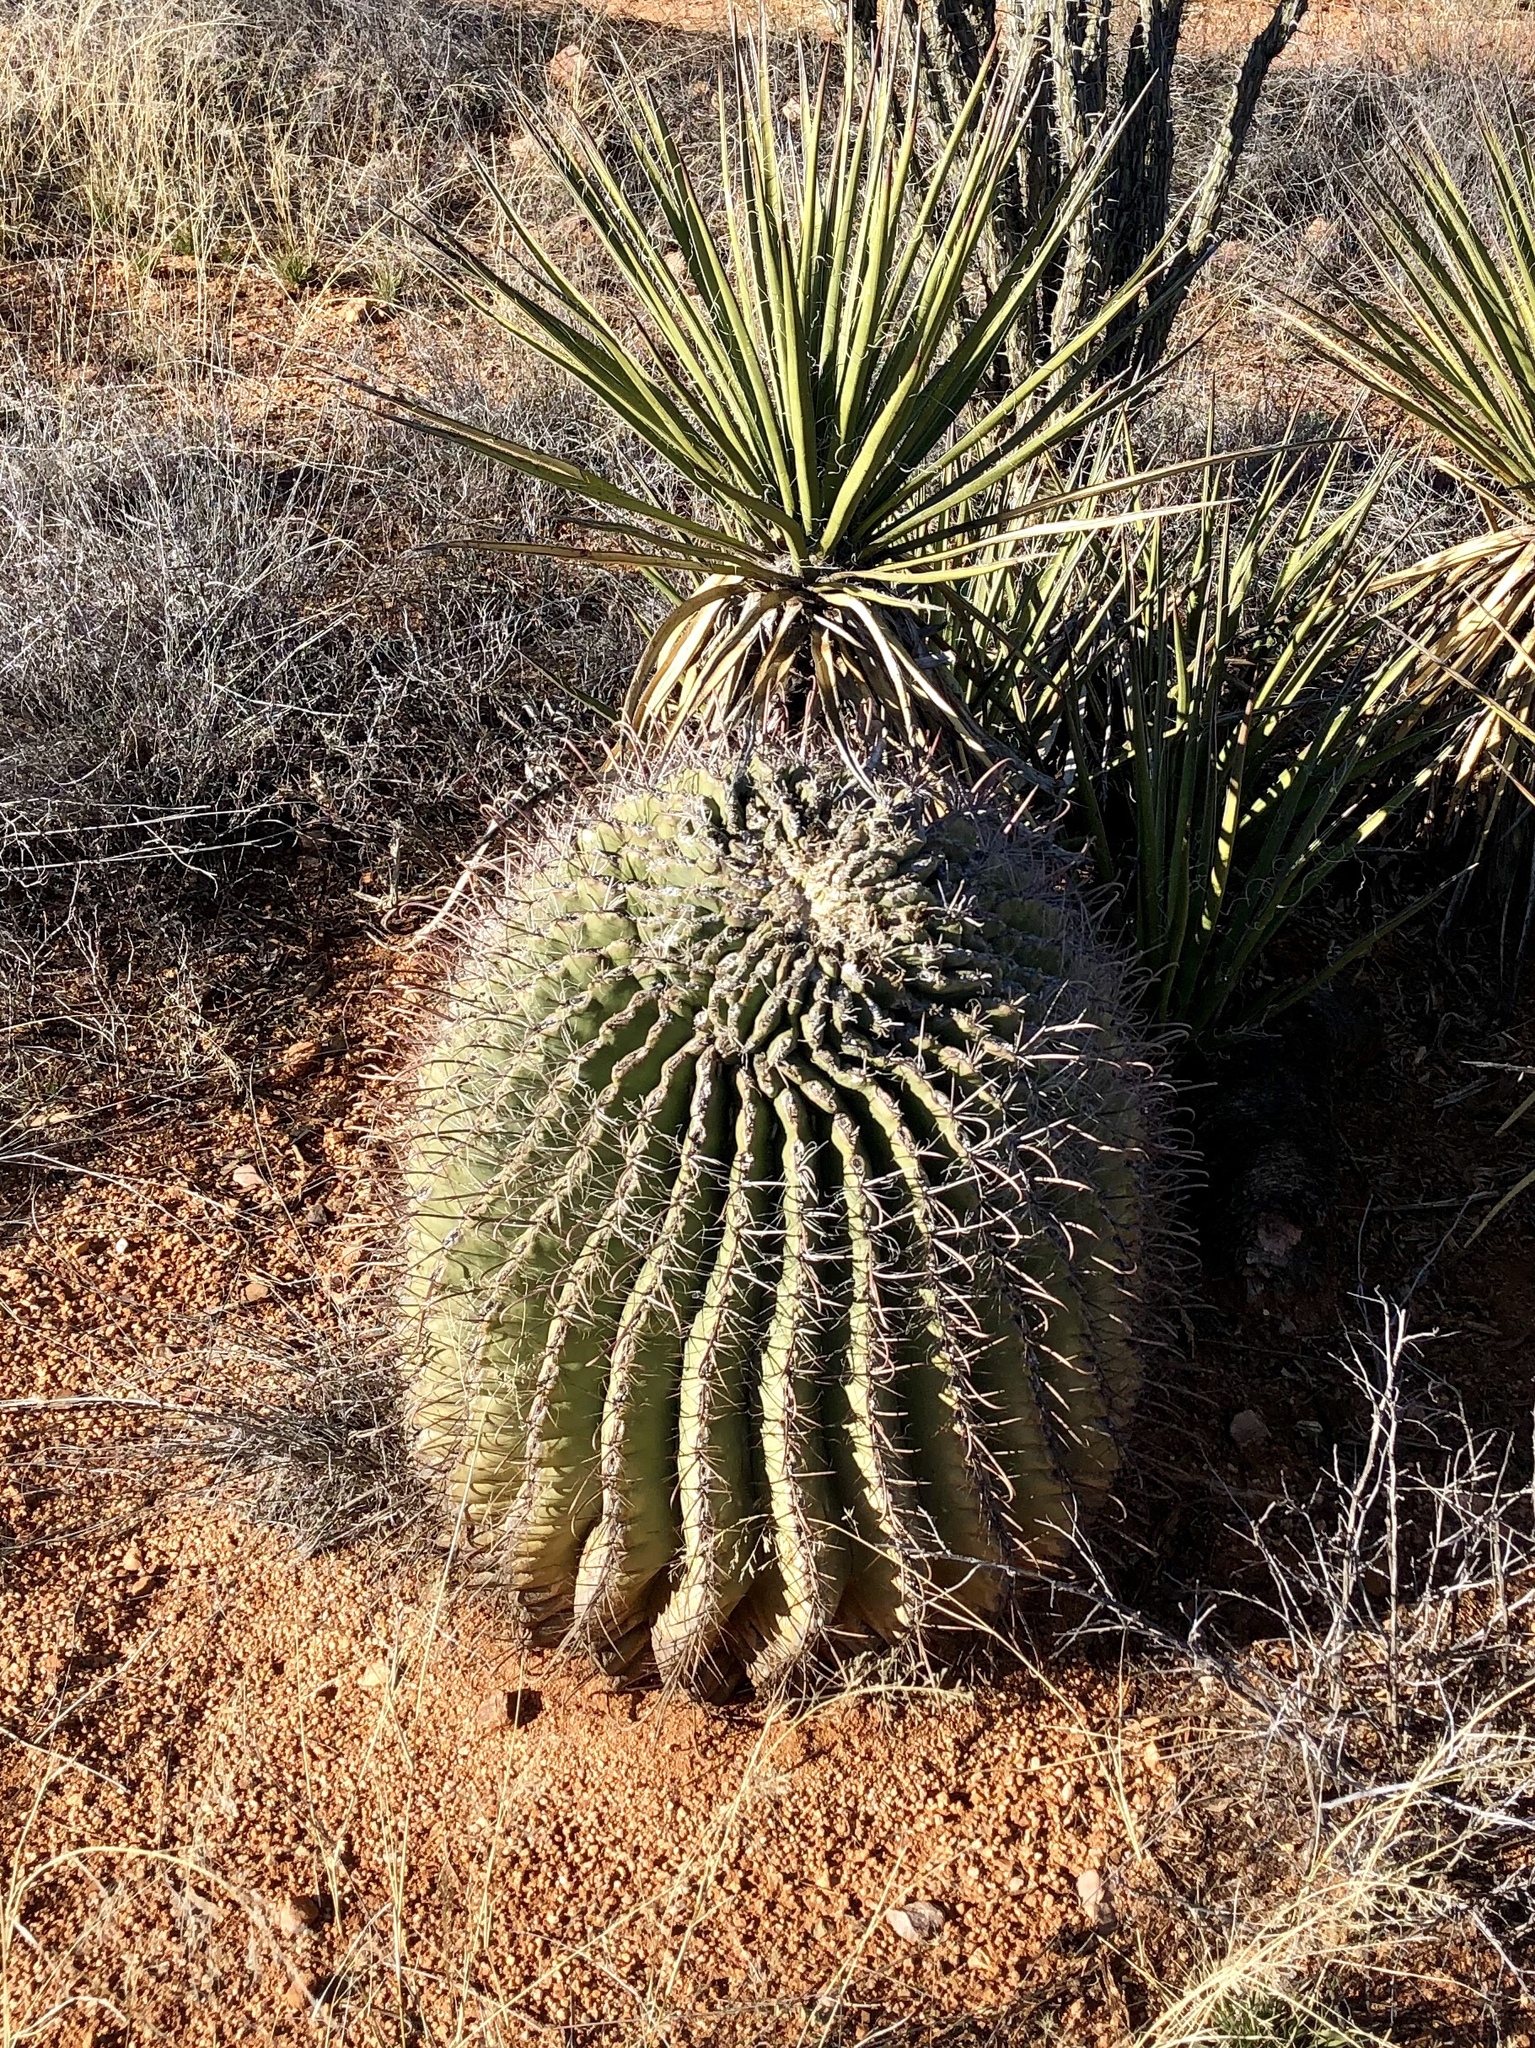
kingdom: Plantae
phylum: Tracheophyta
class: Magnoliopsida
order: Caryophyllales
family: Cactaceae
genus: Ferocactus
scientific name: Ferocactus wislizeni
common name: Candy barrel cactus
